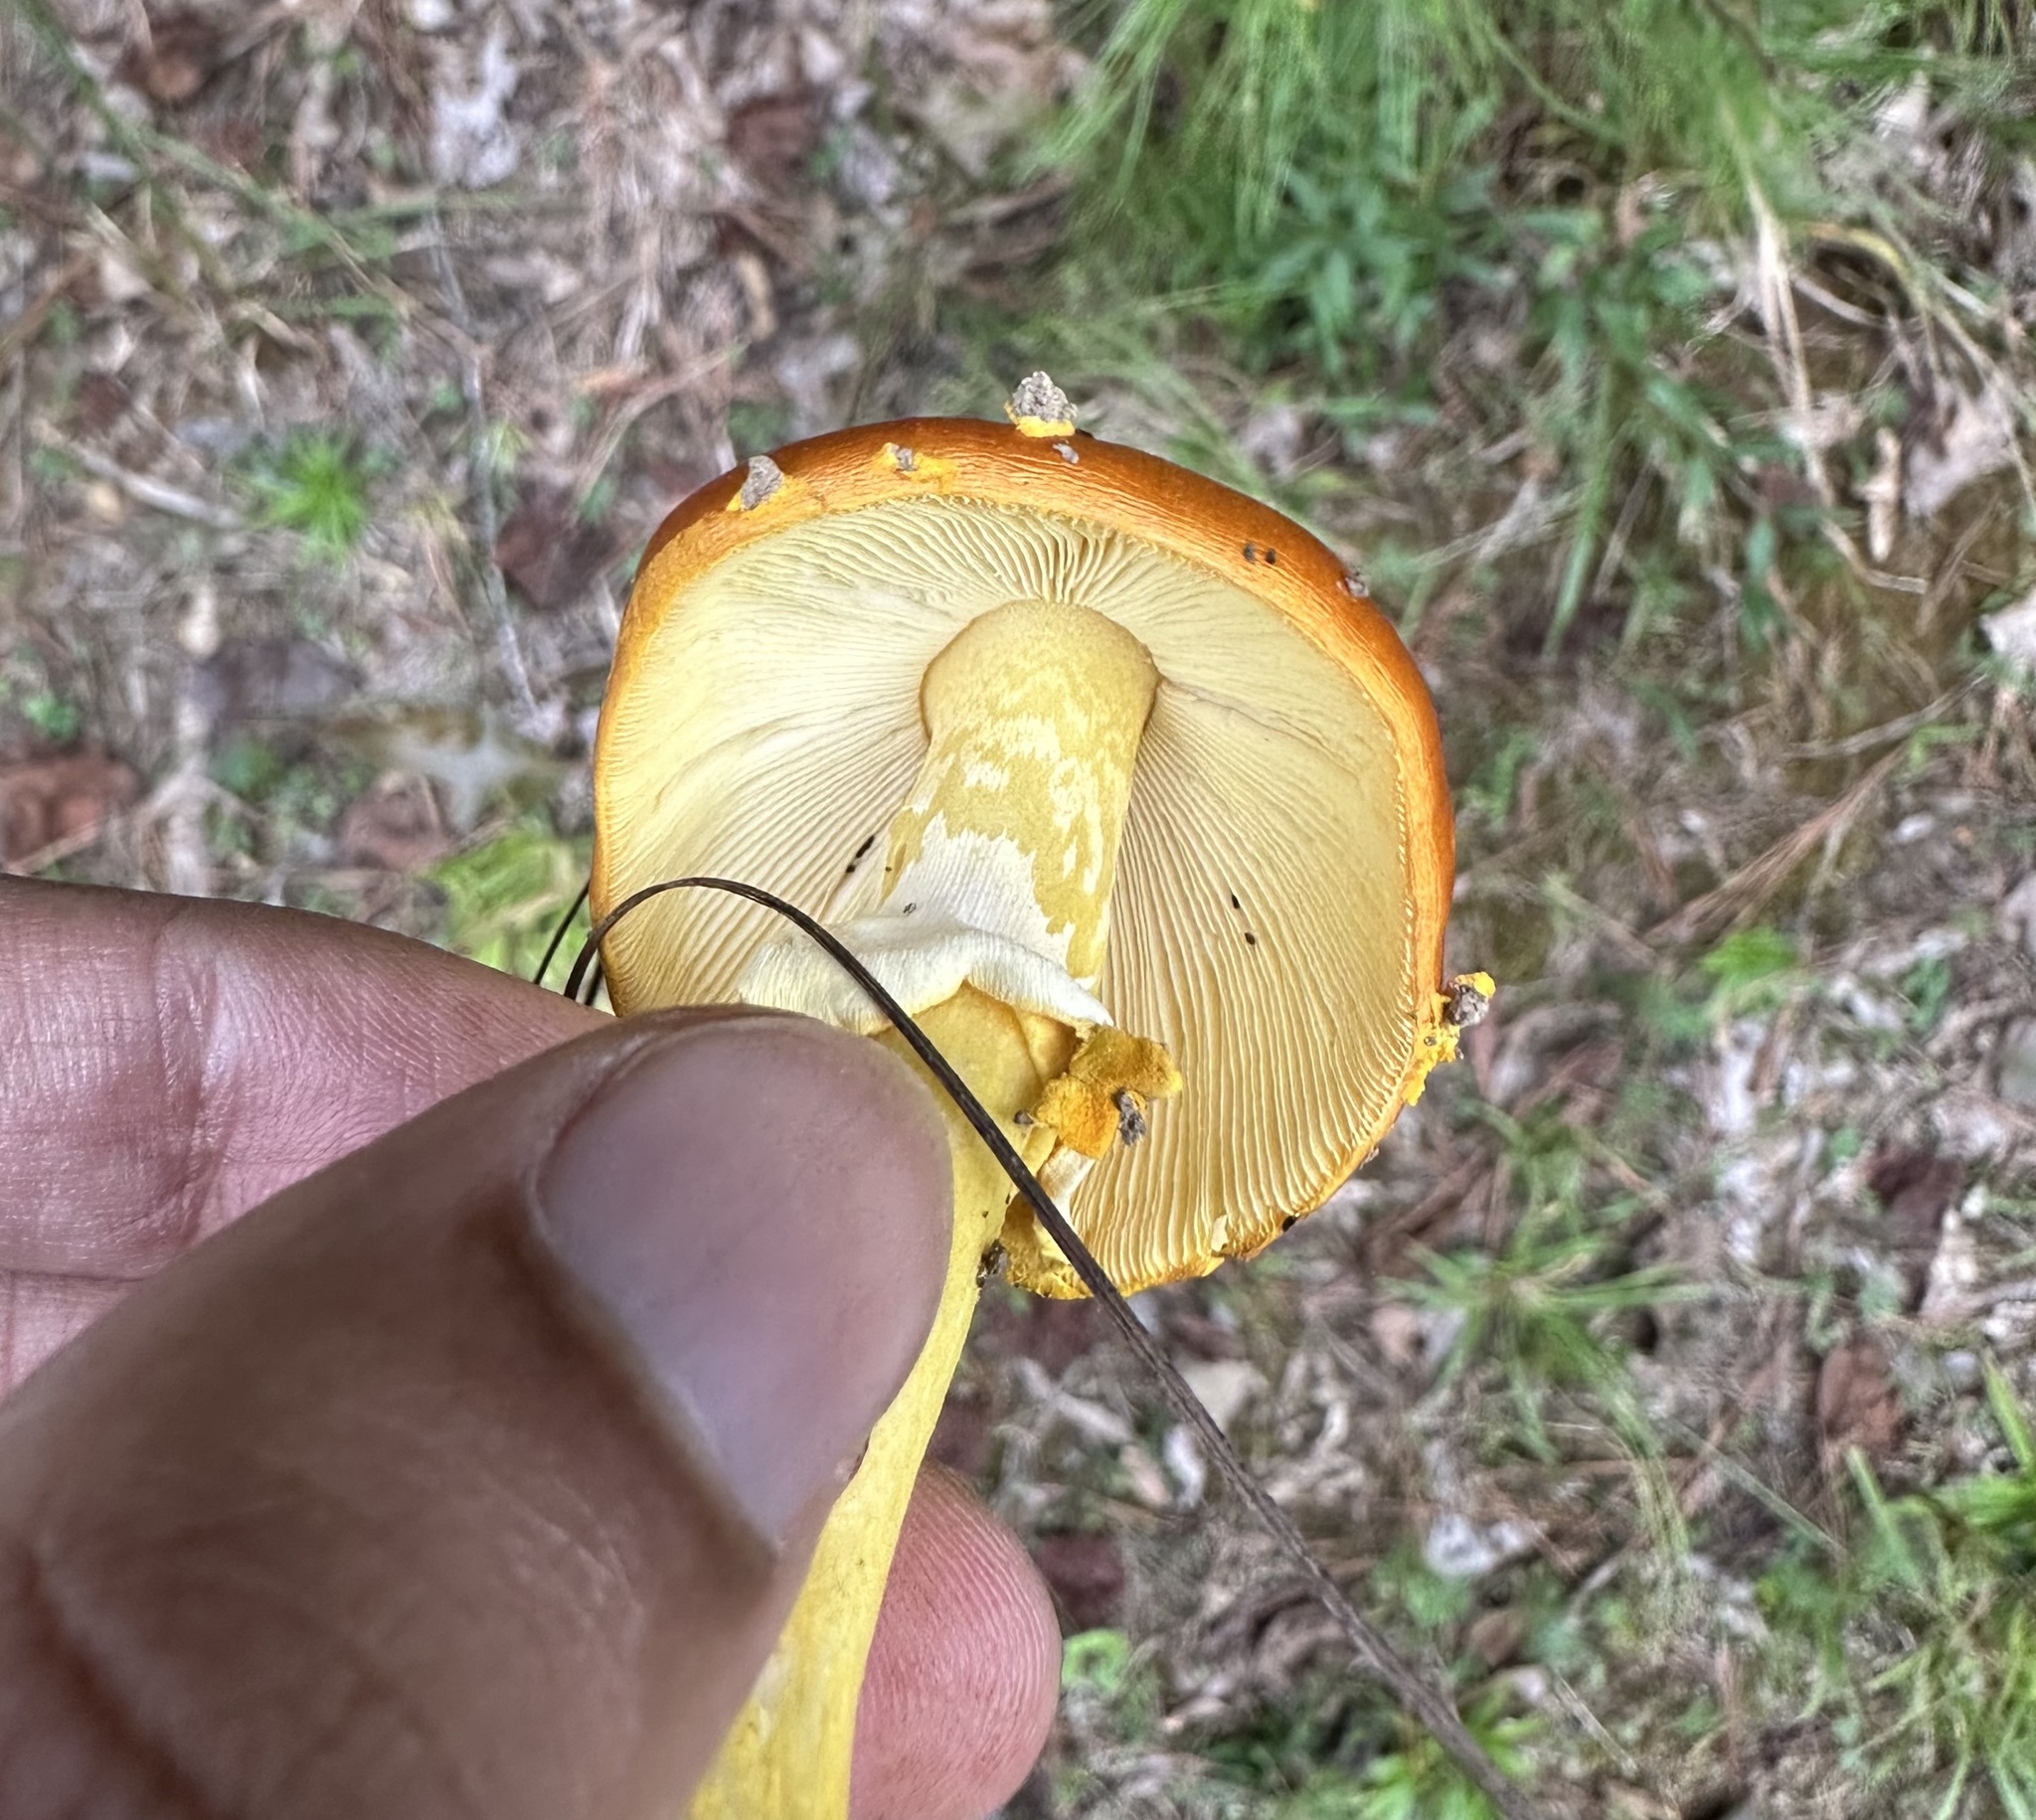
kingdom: Fungi
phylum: Basidiomycota
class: Agaricomycetes
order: Agaricales
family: Amanitaceae
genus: Amanita
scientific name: Amanita flavoconia
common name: Yellow patches
